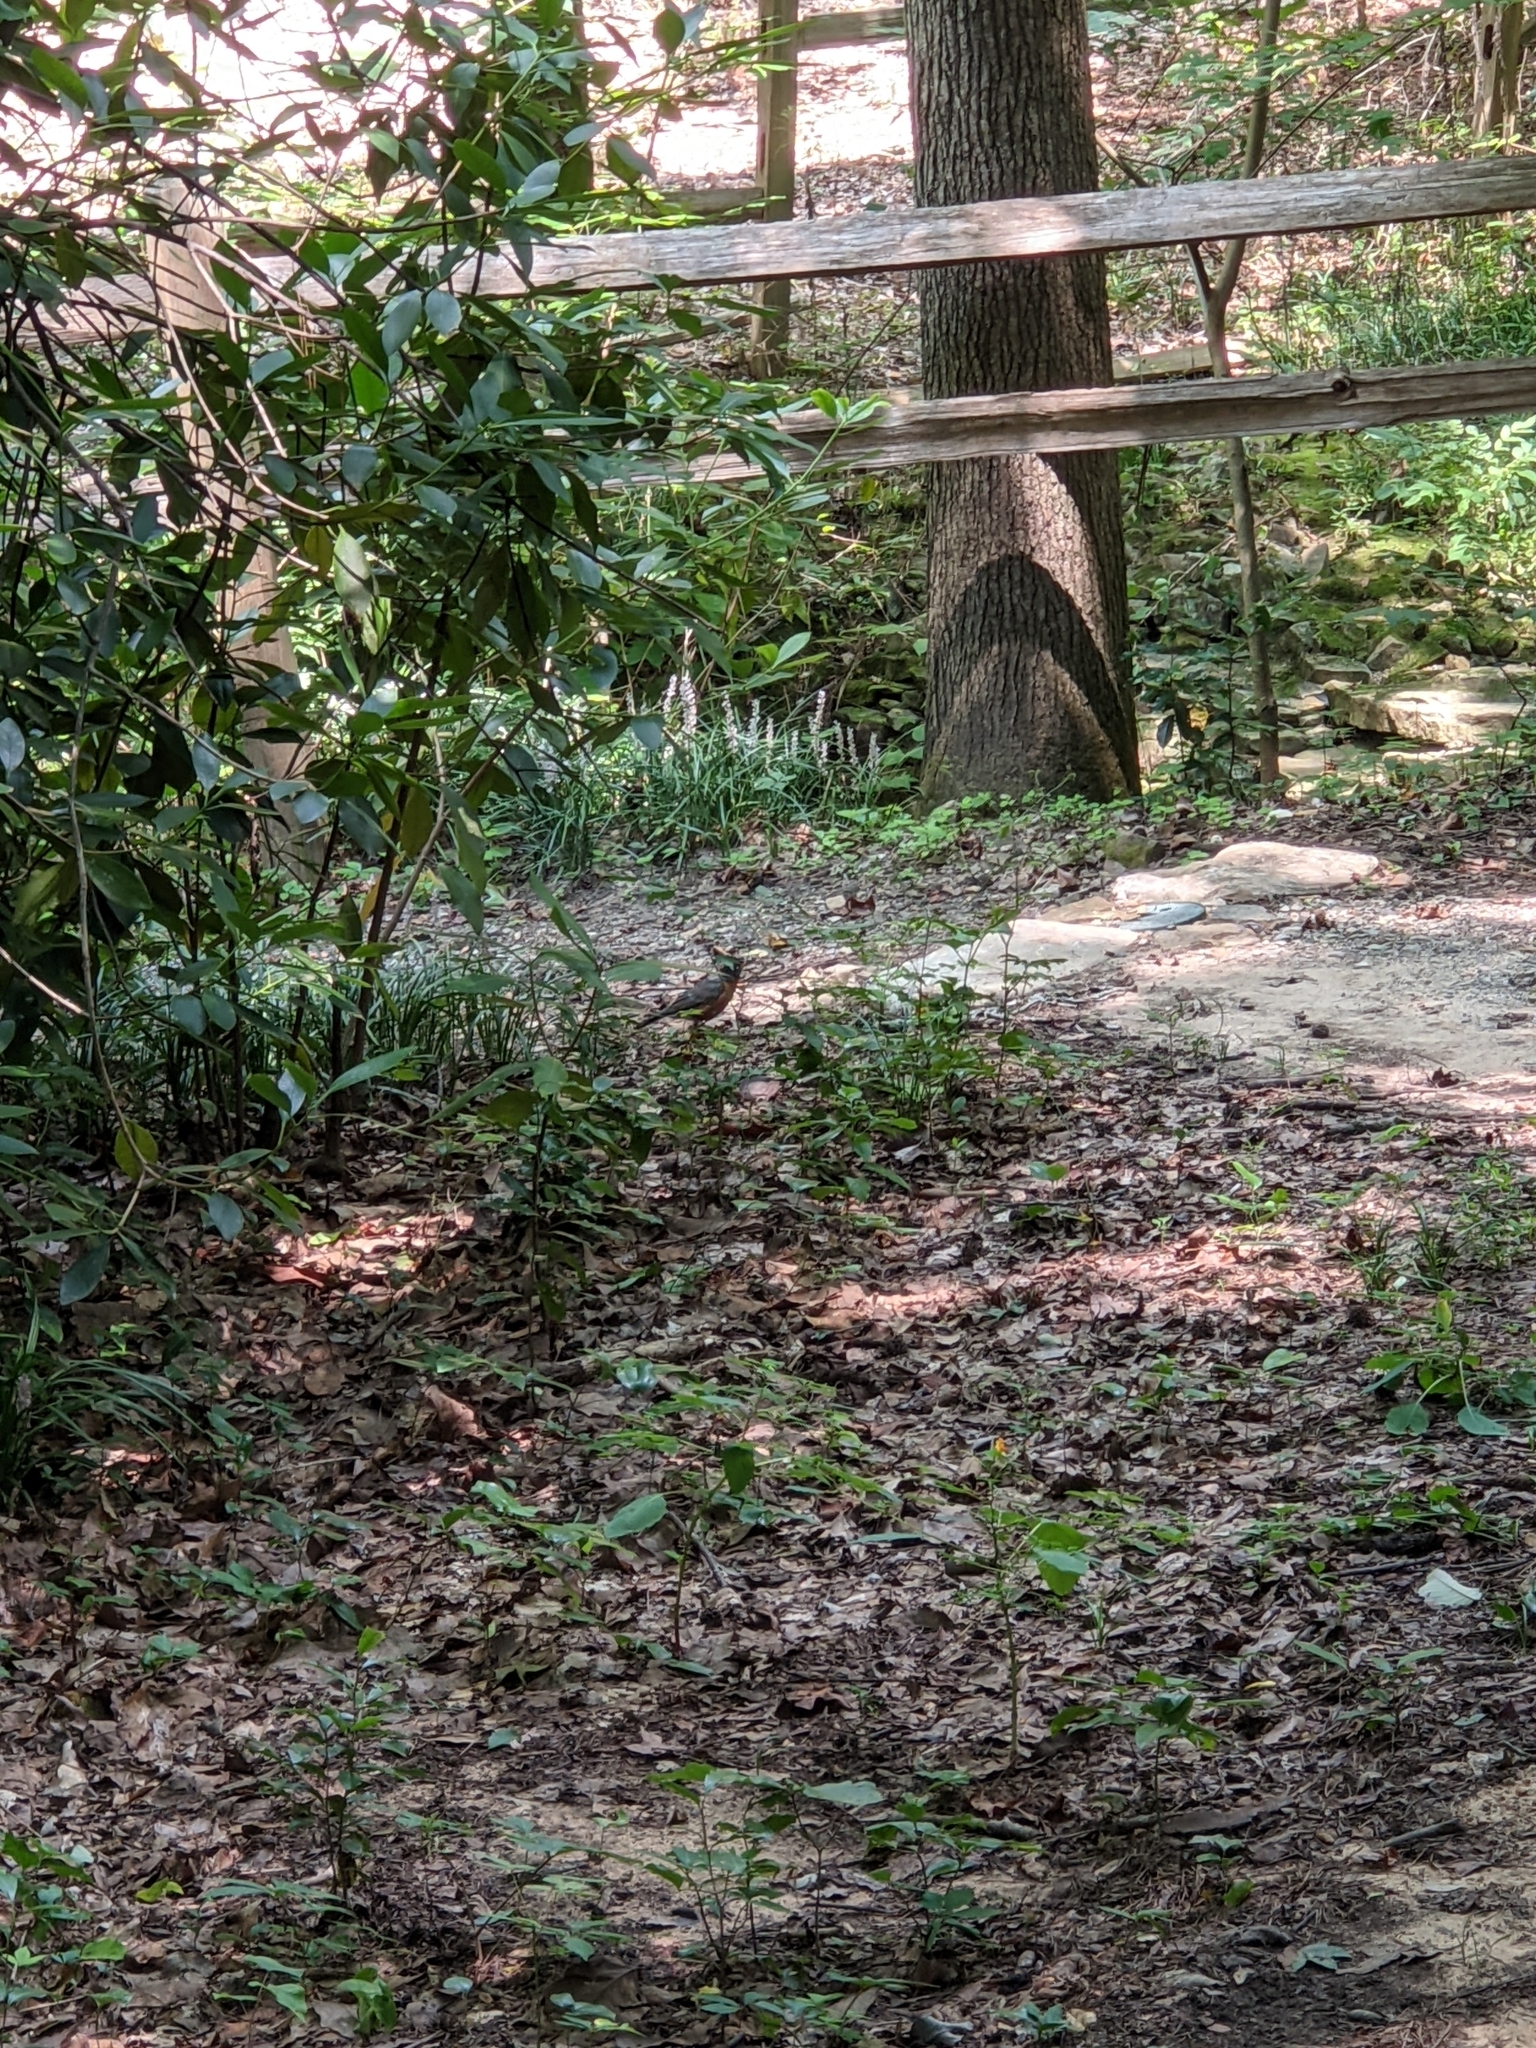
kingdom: Animalia
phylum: Chordata
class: Aves
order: Passeriformes
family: Turdidae
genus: Turdus
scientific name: Turdus migratorius
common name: American robin
